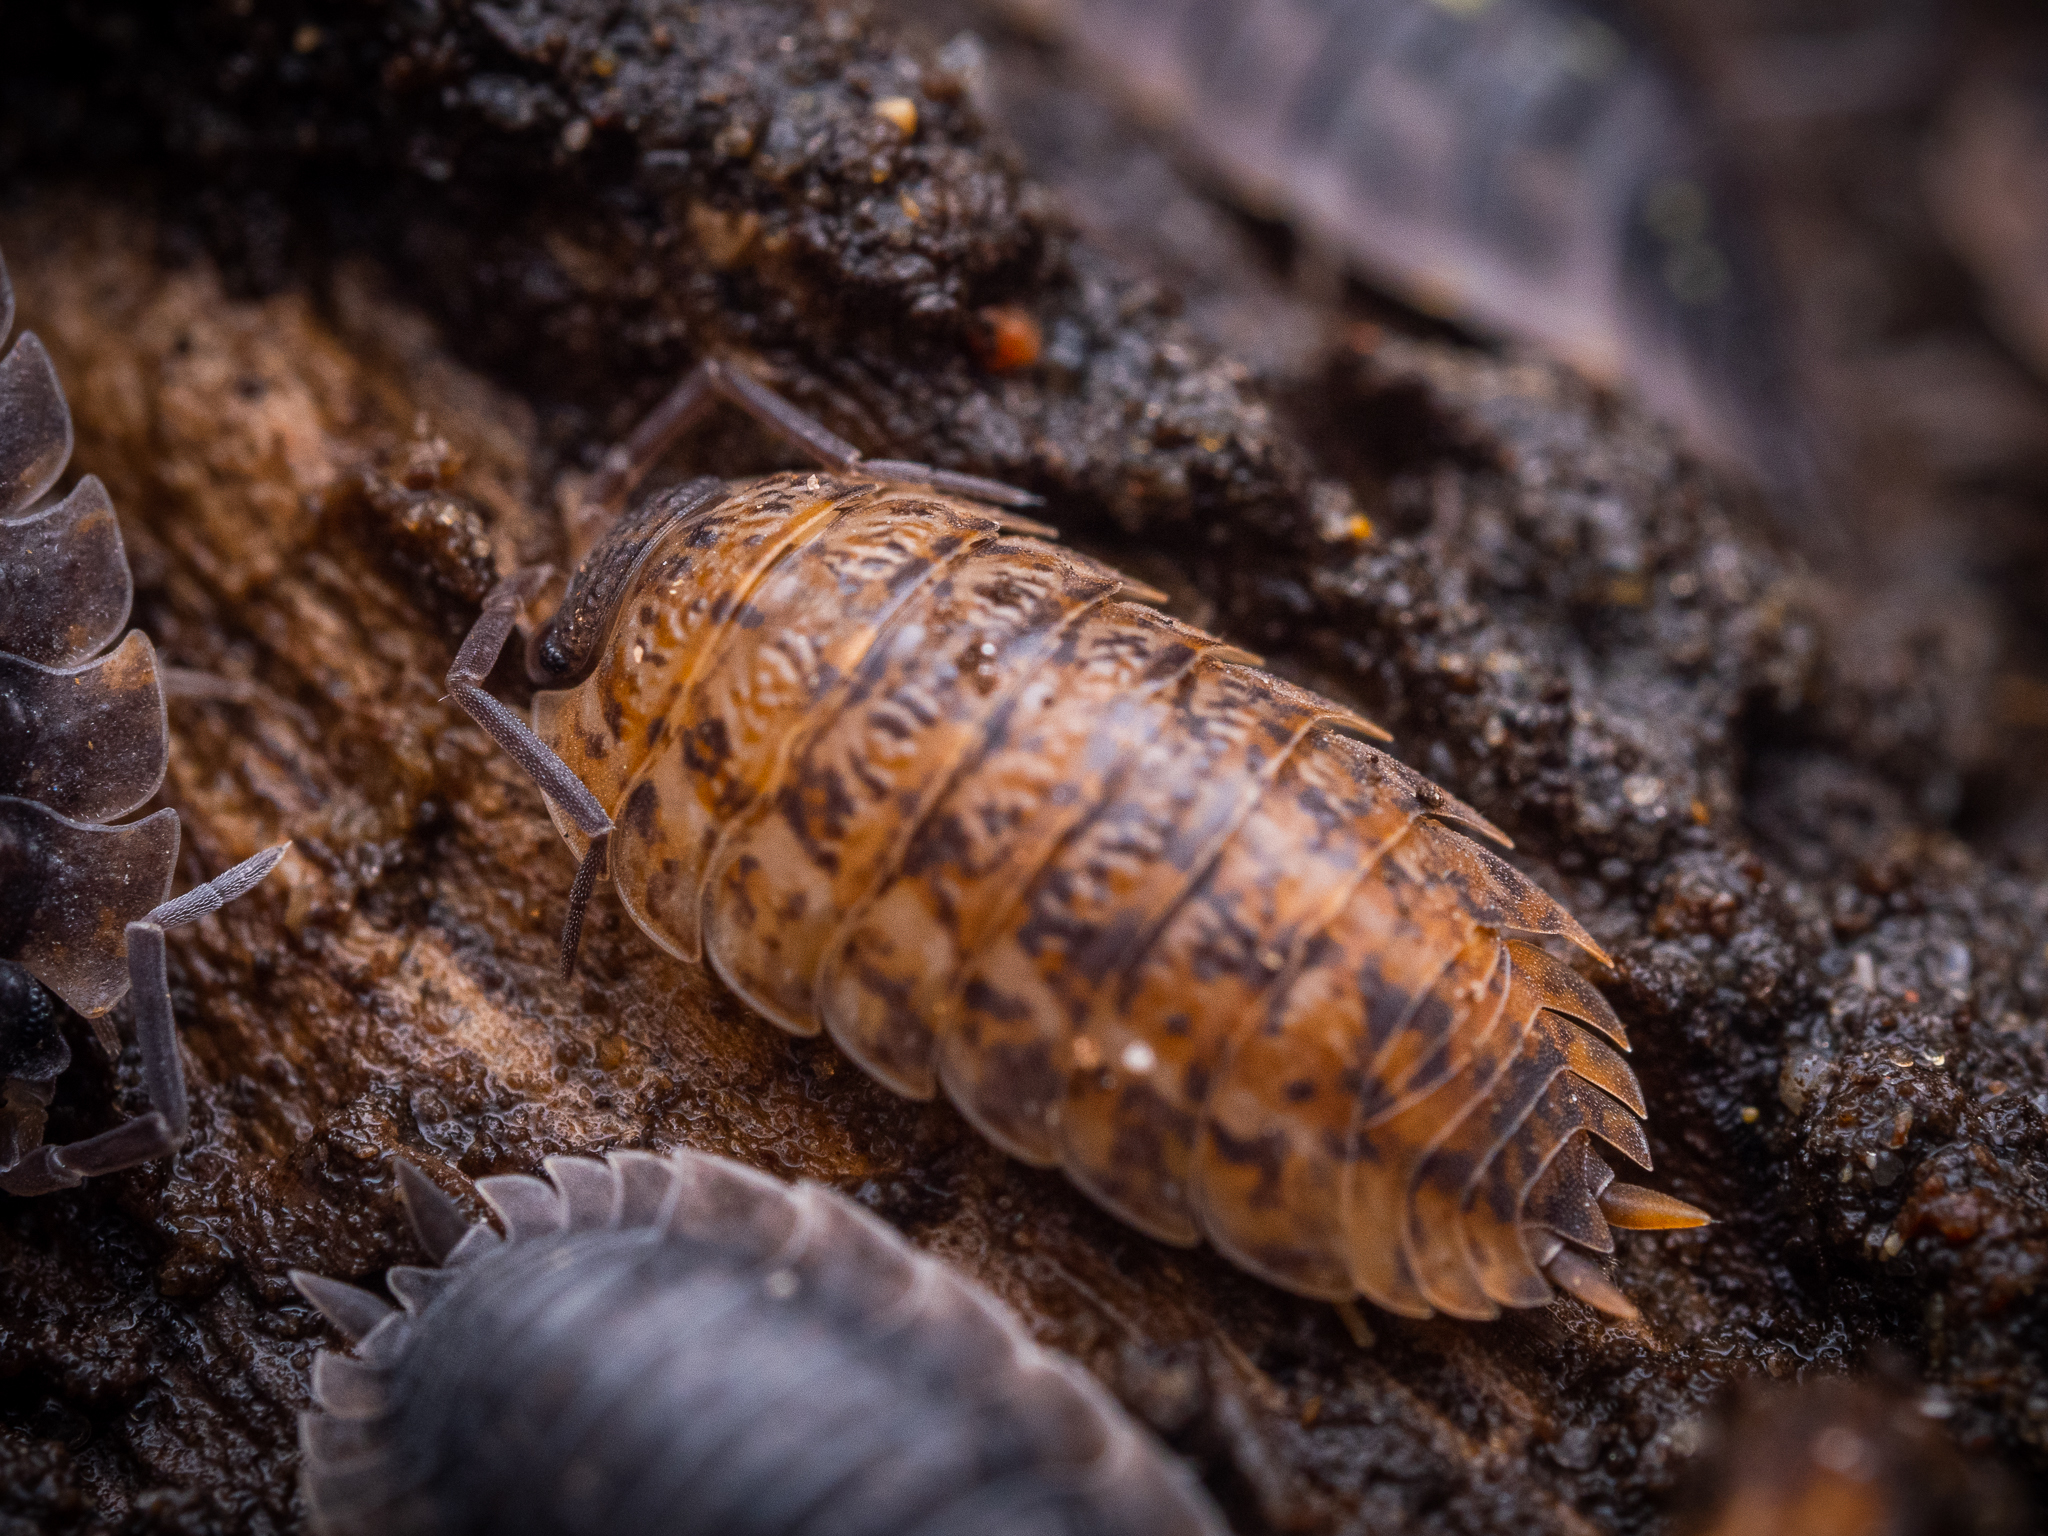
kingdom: Animalia
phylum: Arthropoda
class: Malacostraca
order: Isopoda
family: Trachelipodidae
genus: Trachelipus
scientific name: Trachelipus rathkii
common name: Isopod
